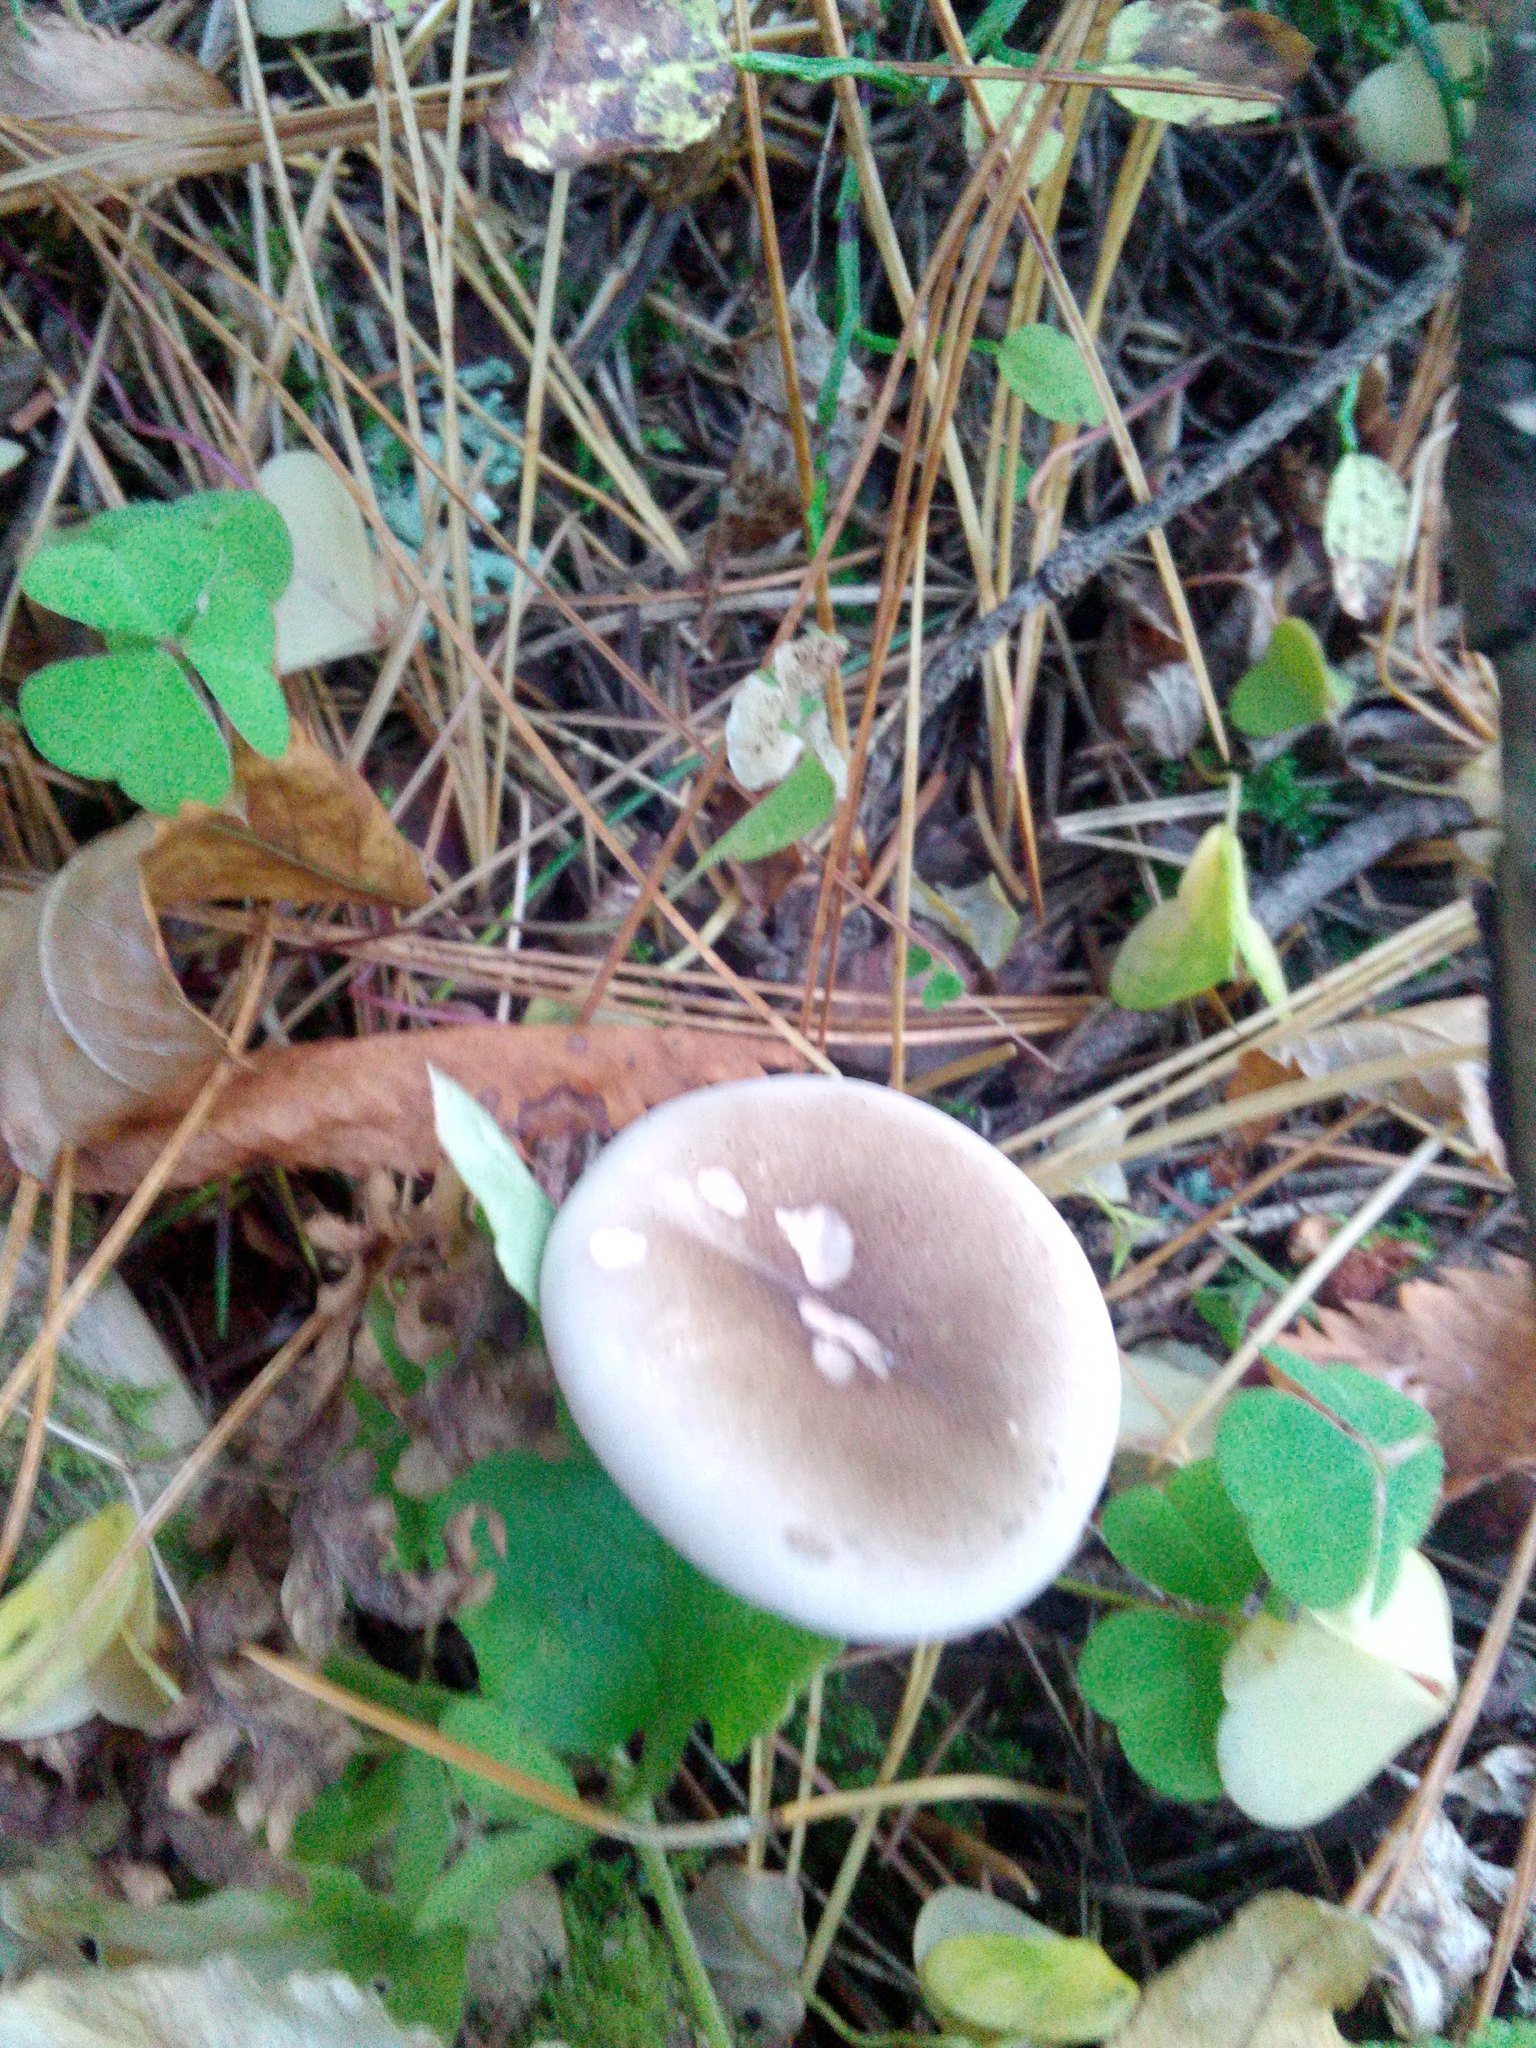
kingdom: Fungi
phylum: Basidiomycota
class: Agaricomycetes
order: Agaricales
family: Hygrophoraceae
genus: Ampulloclitocybe
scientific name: Ampulloclitocybe clavipes
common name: Club foot
